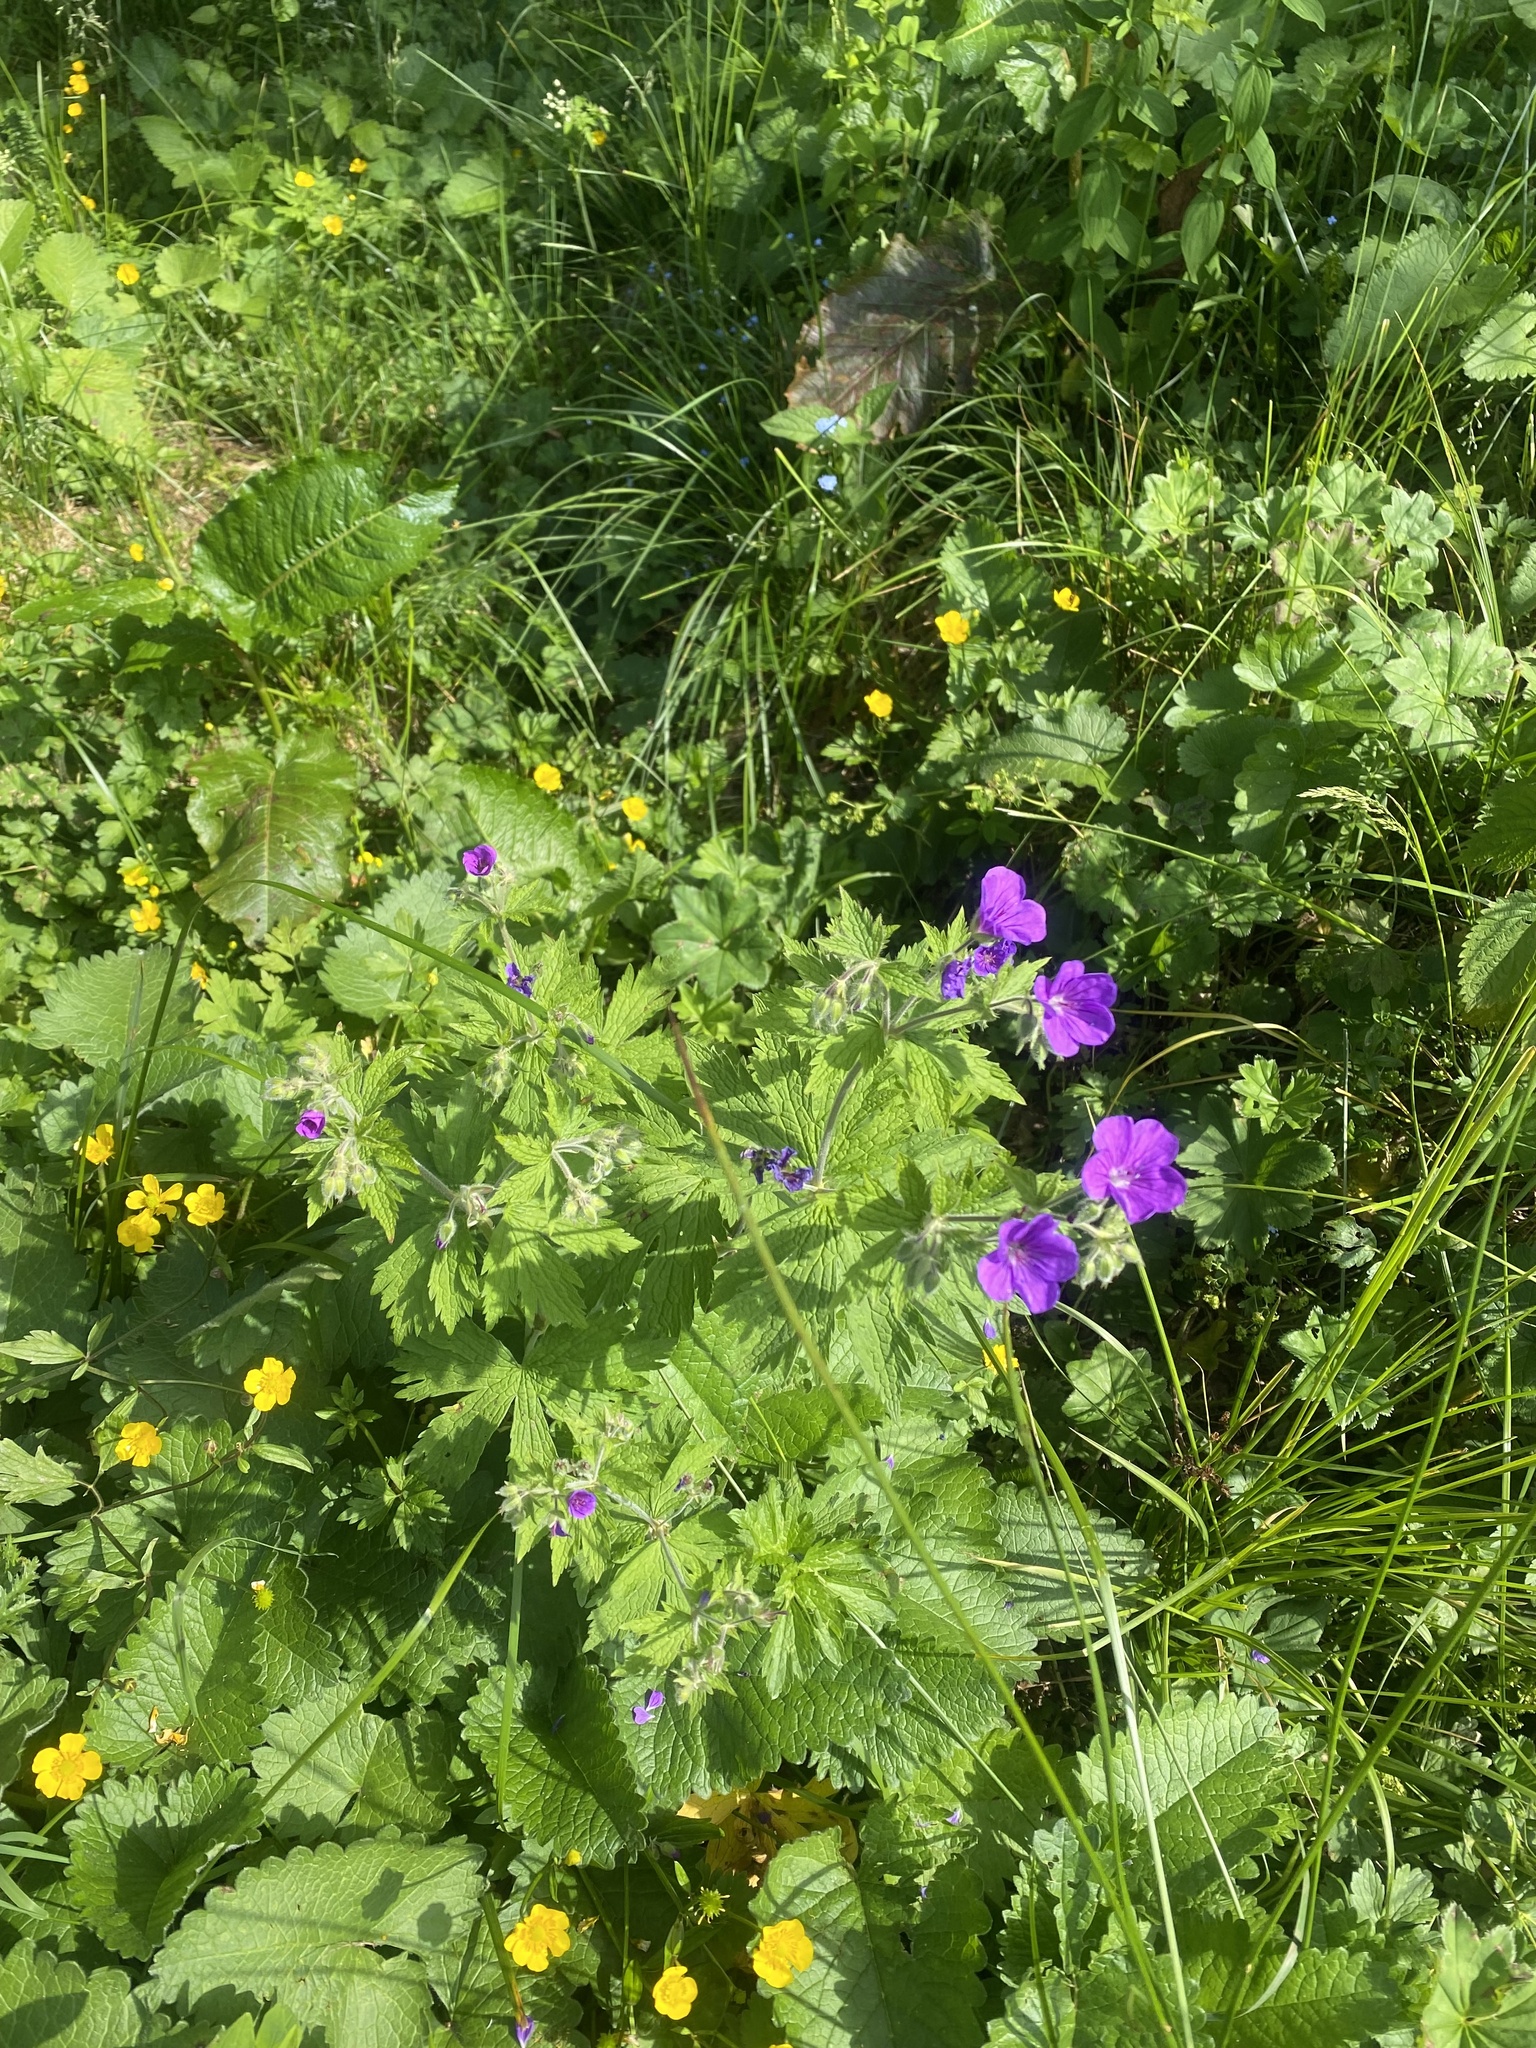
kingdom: Plantae
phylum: Tracheophyta
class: Magnoliopsida
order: Geraniales
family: Geraniaceae
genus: Geranium
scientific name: Geranium sylvaticum
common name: Wood crane's-bill
